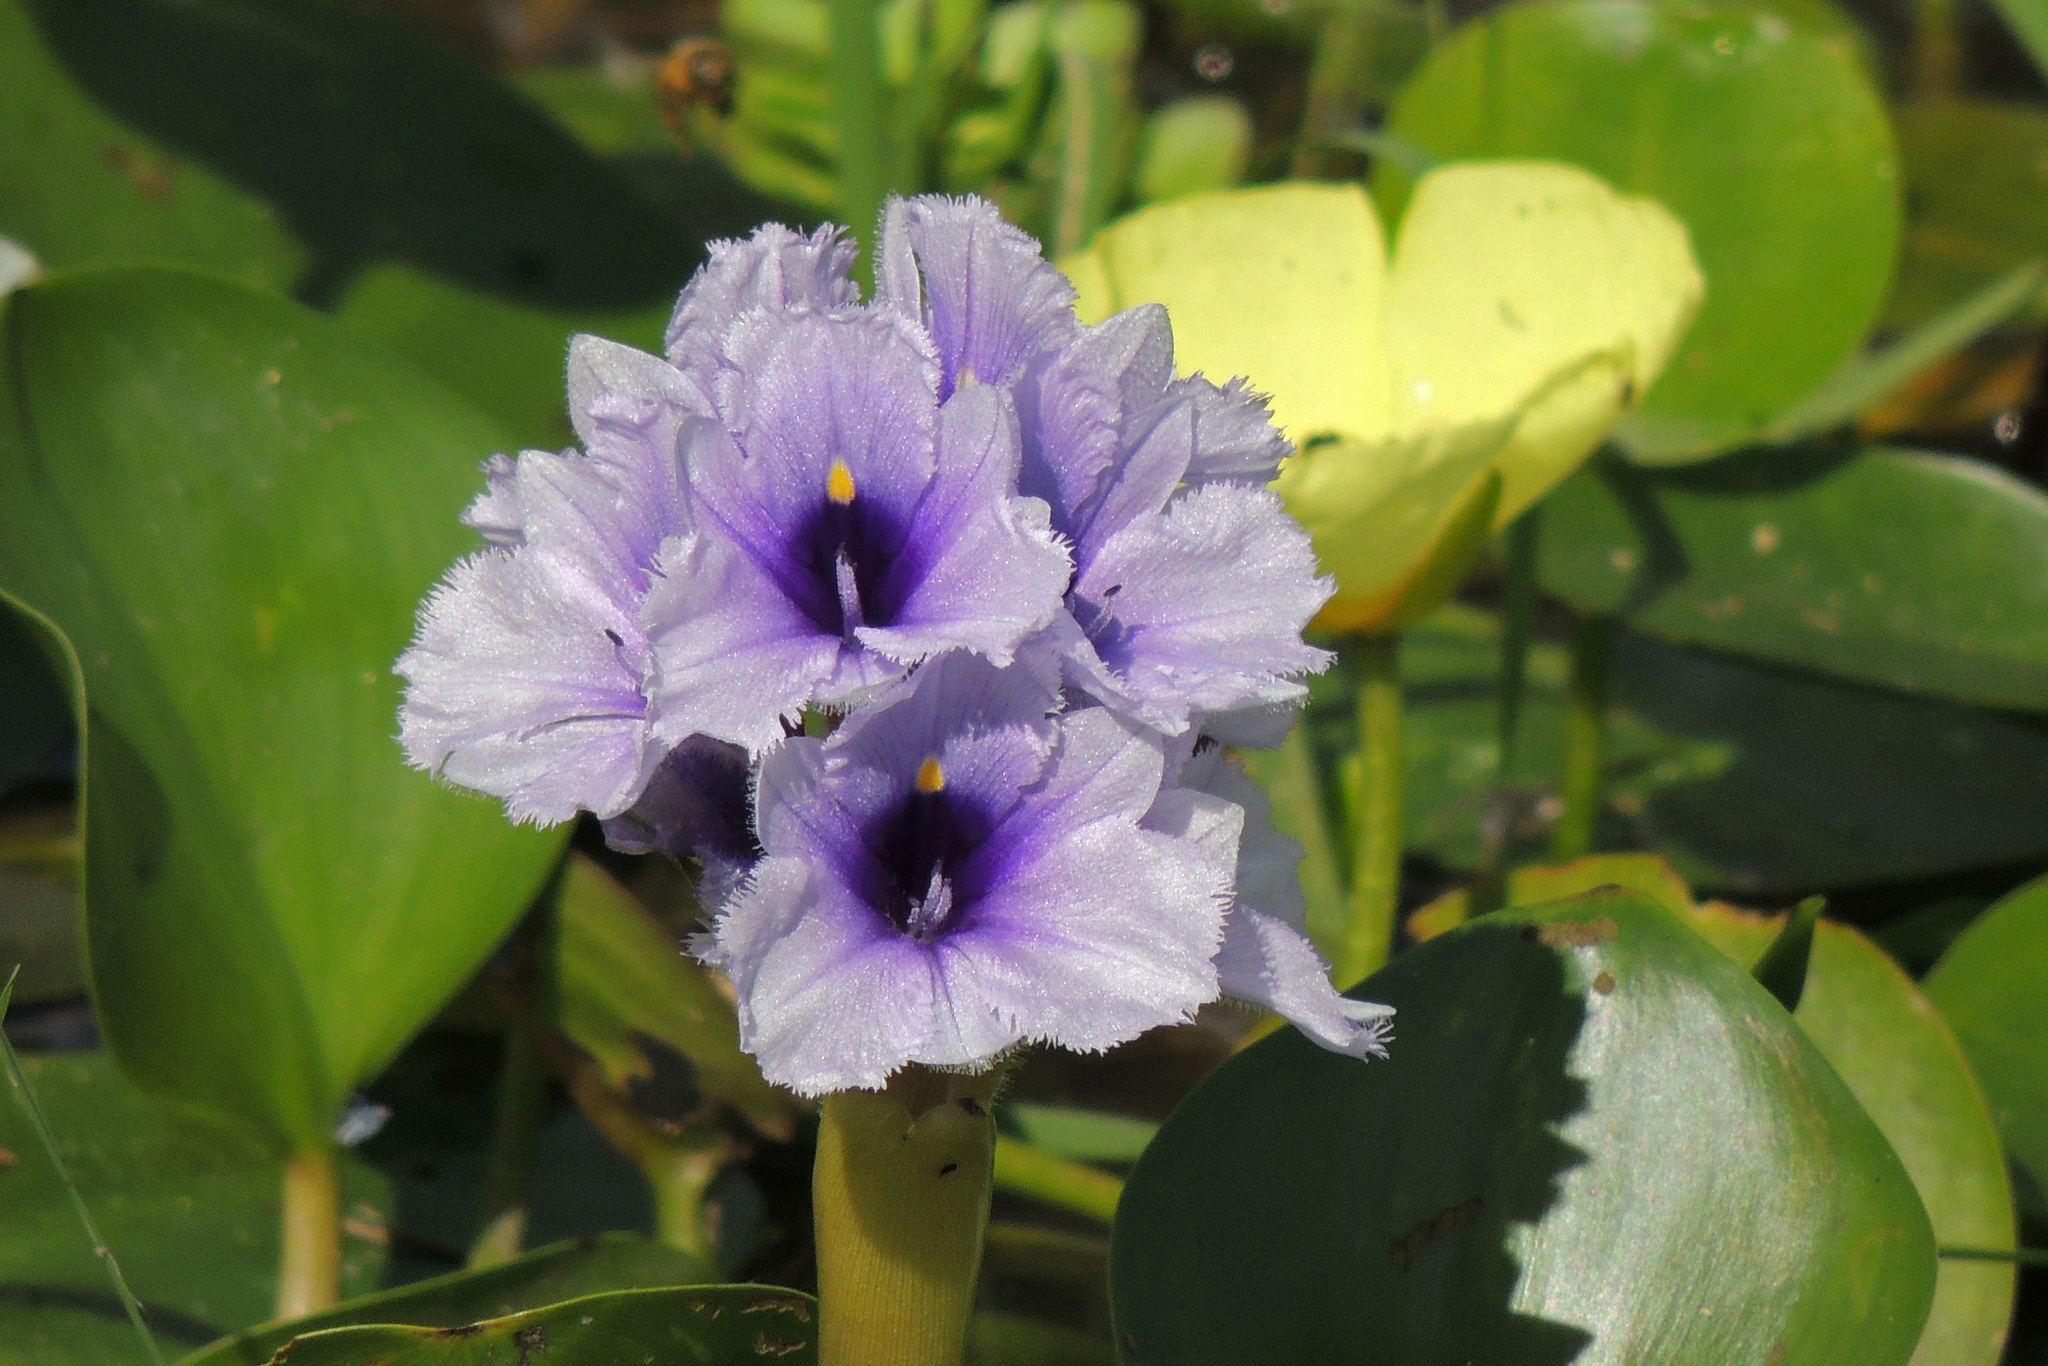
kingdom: Plantae
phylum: Tracheophyta
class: Liliopsida
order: Commelinales
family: Pontederiaceae
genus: Pontederia
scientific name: Pontederia azurea
